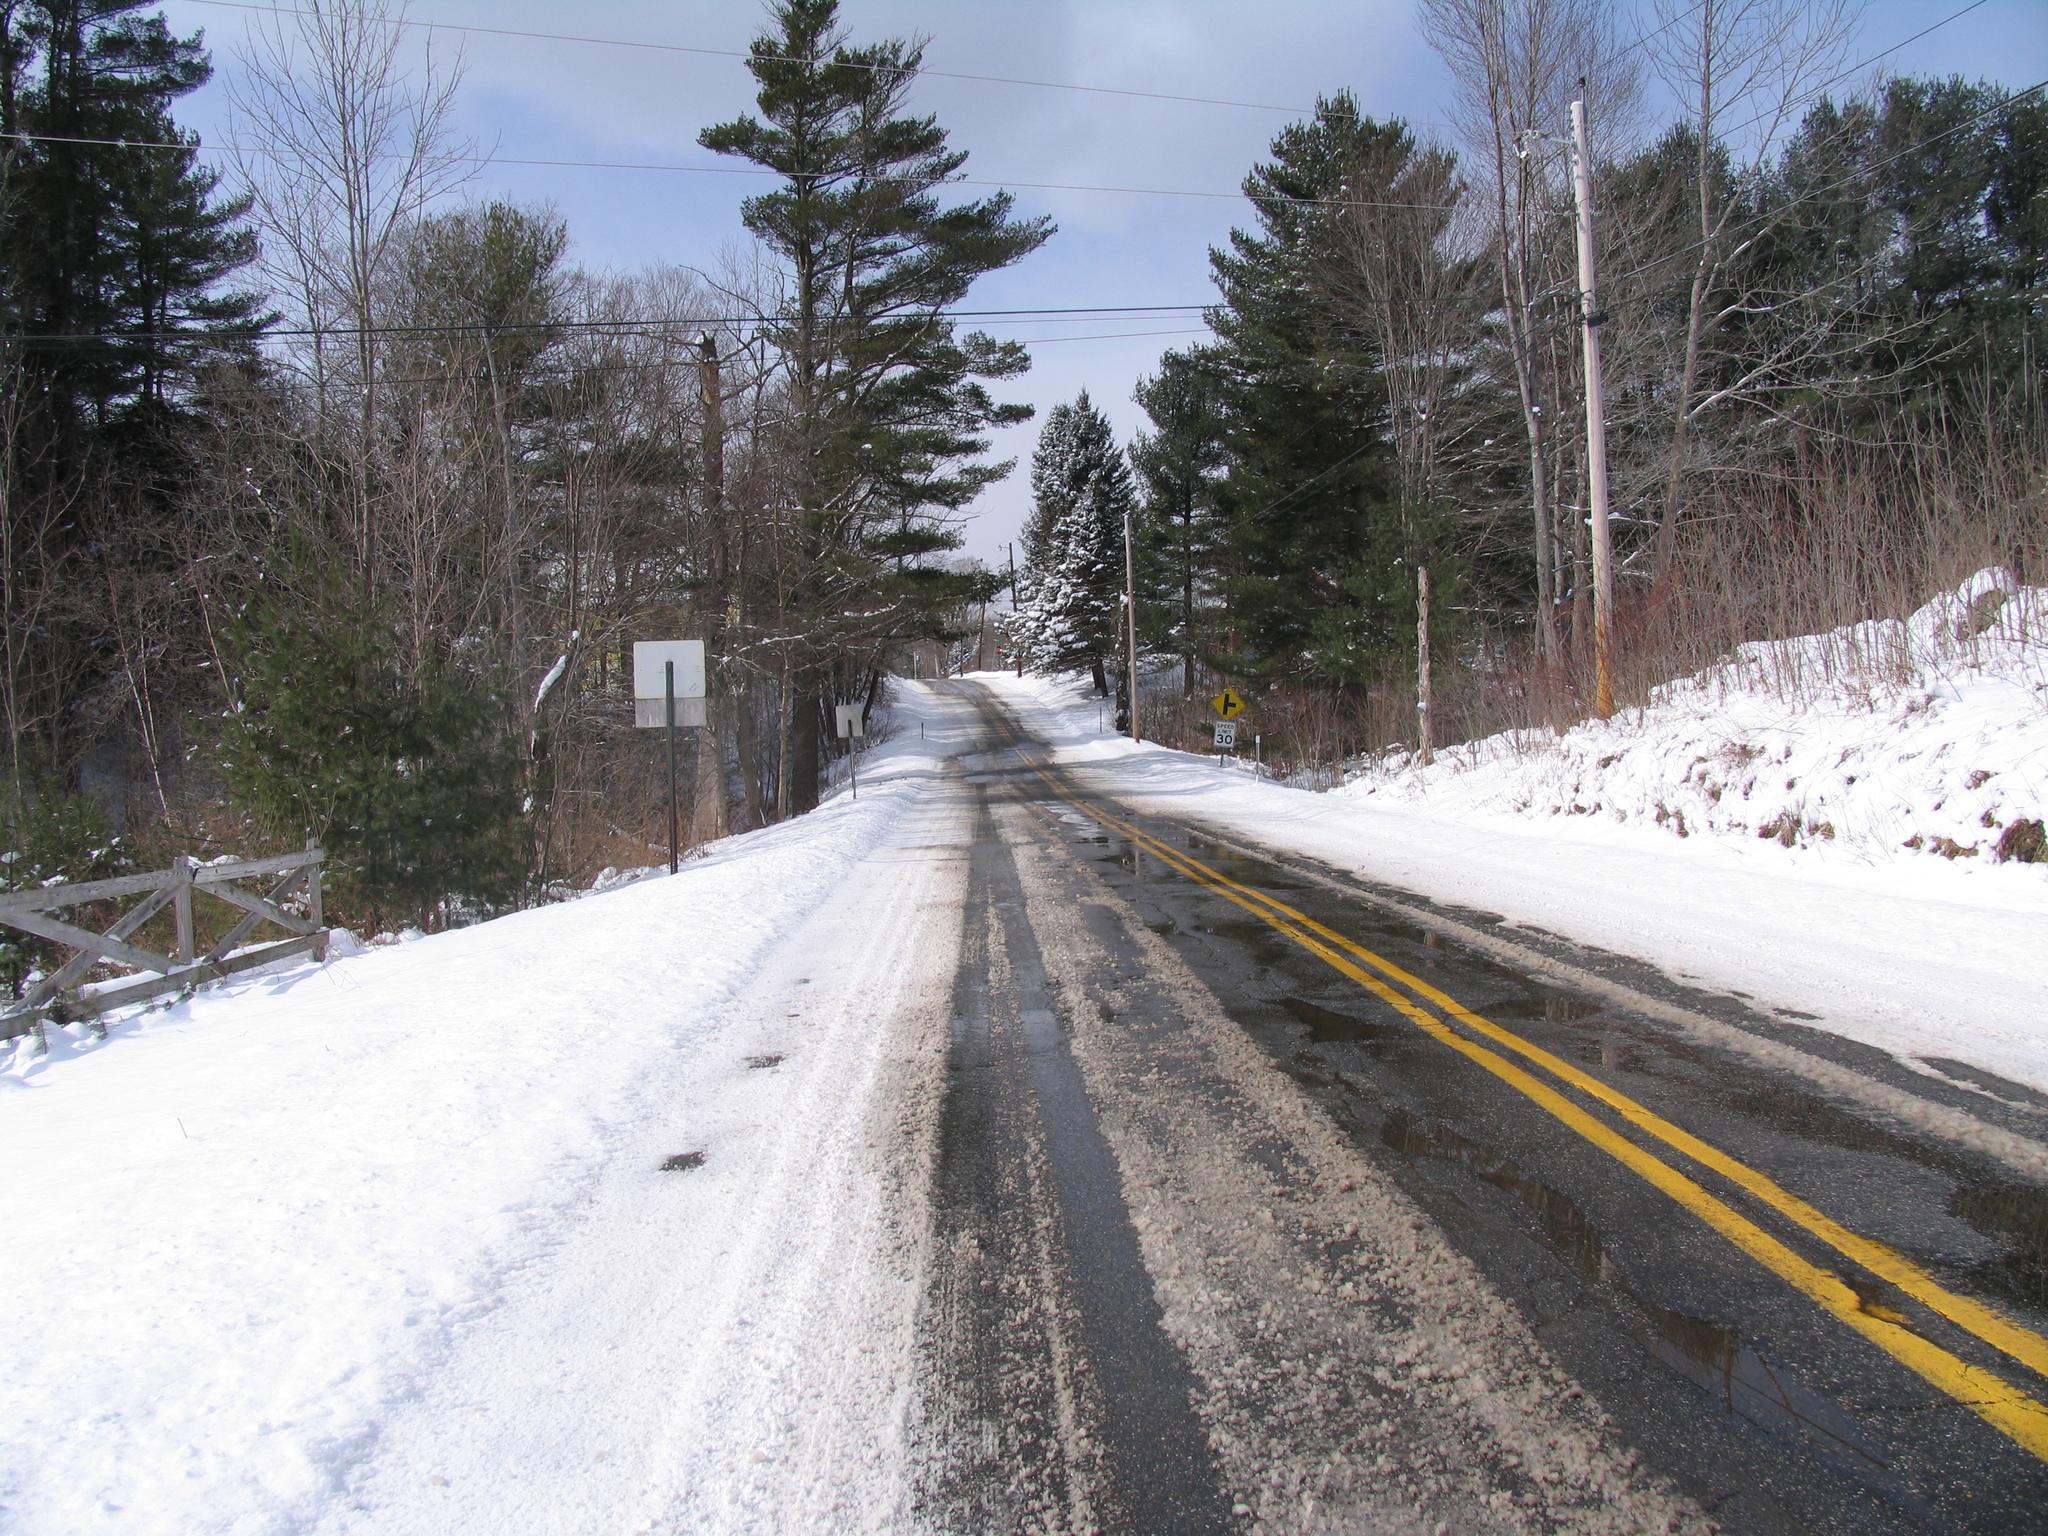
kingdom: Plantae
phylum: Tracheophyta
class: Pinopsida
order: Pinales
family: Pinaceae
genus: Pinus
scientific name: Pinus strobus
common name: Weymouth pine
